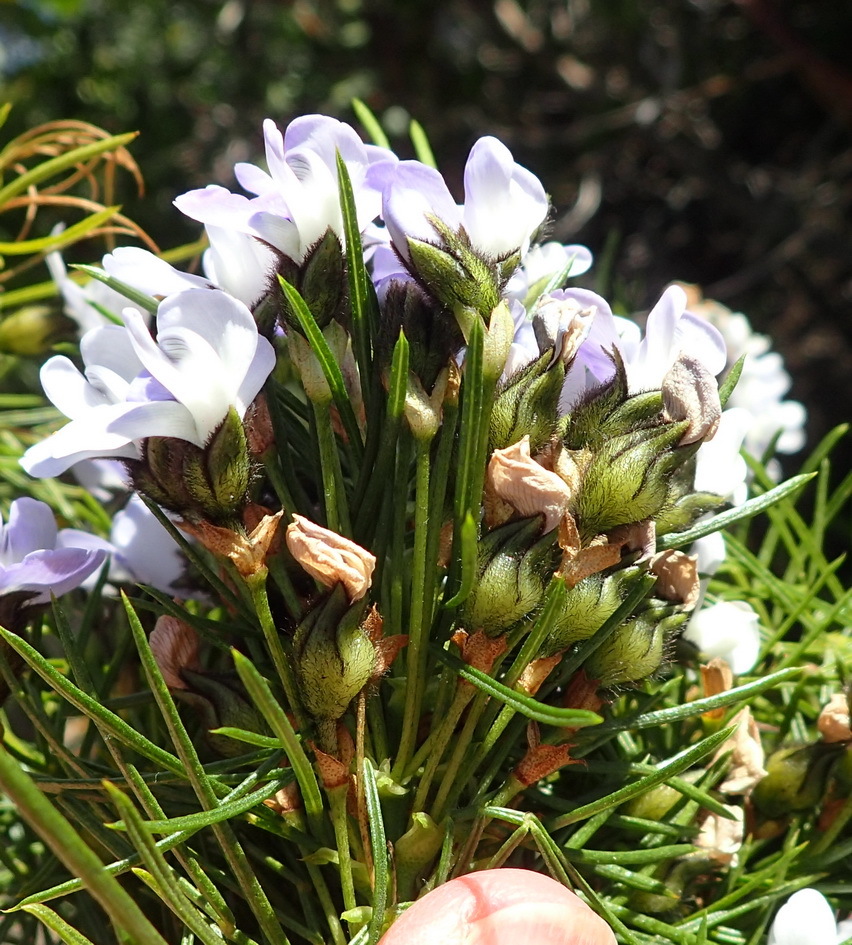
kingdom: Plantae
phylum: Tracheophyta
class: Magnoliopsida
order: Fabales
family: Fabaceae
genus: Psoralea
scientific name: Psoralea arborea
